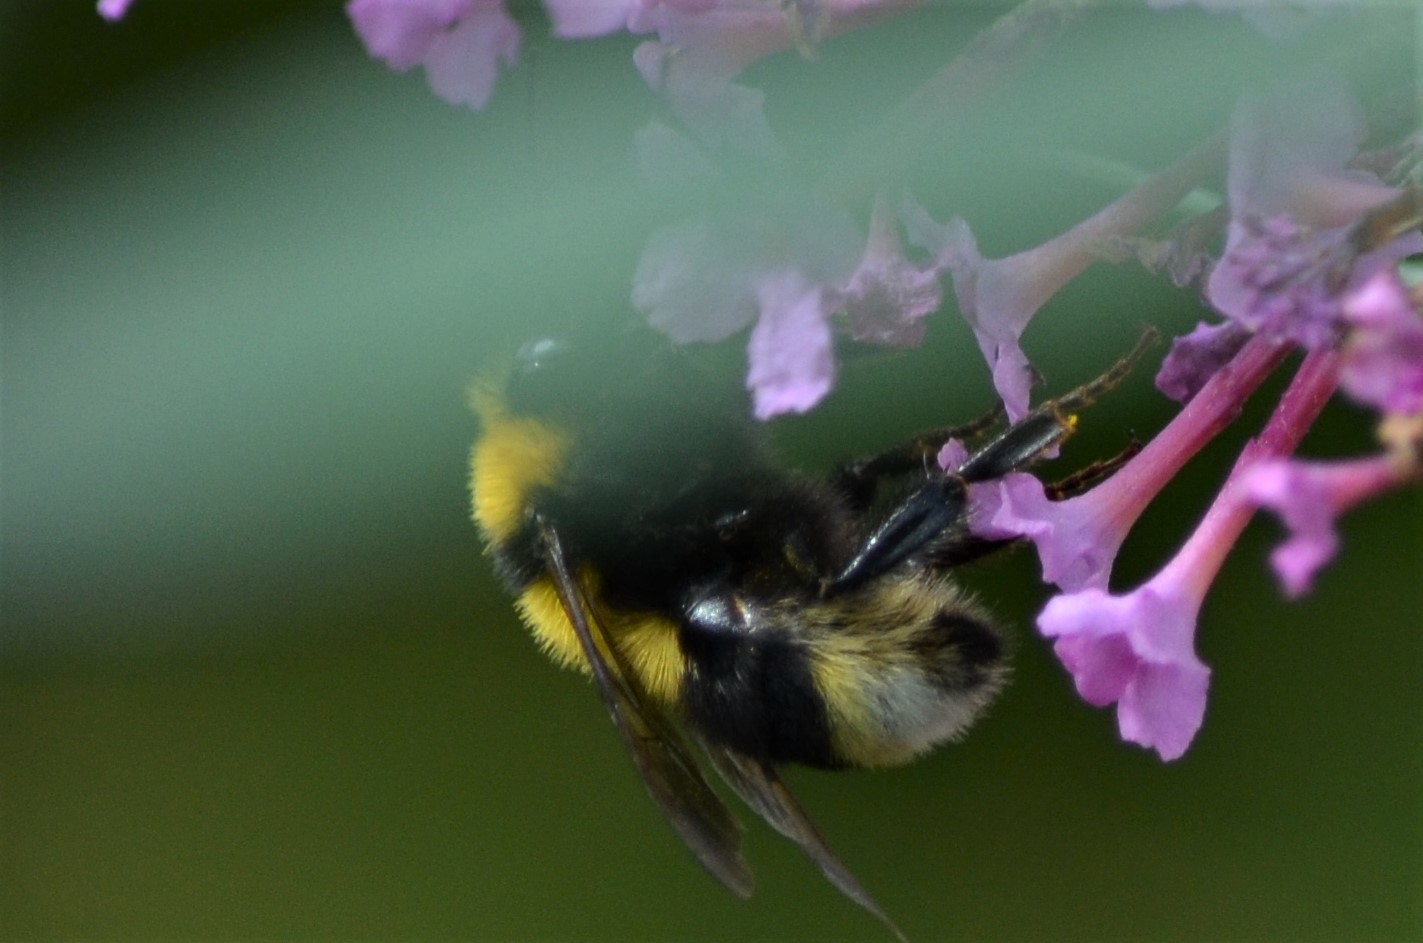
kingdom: Animalia
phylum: Arthropoda
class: Insecta
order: Hymenoptera
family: Apidae
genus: Bombus
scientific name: Bombus argillaceus
